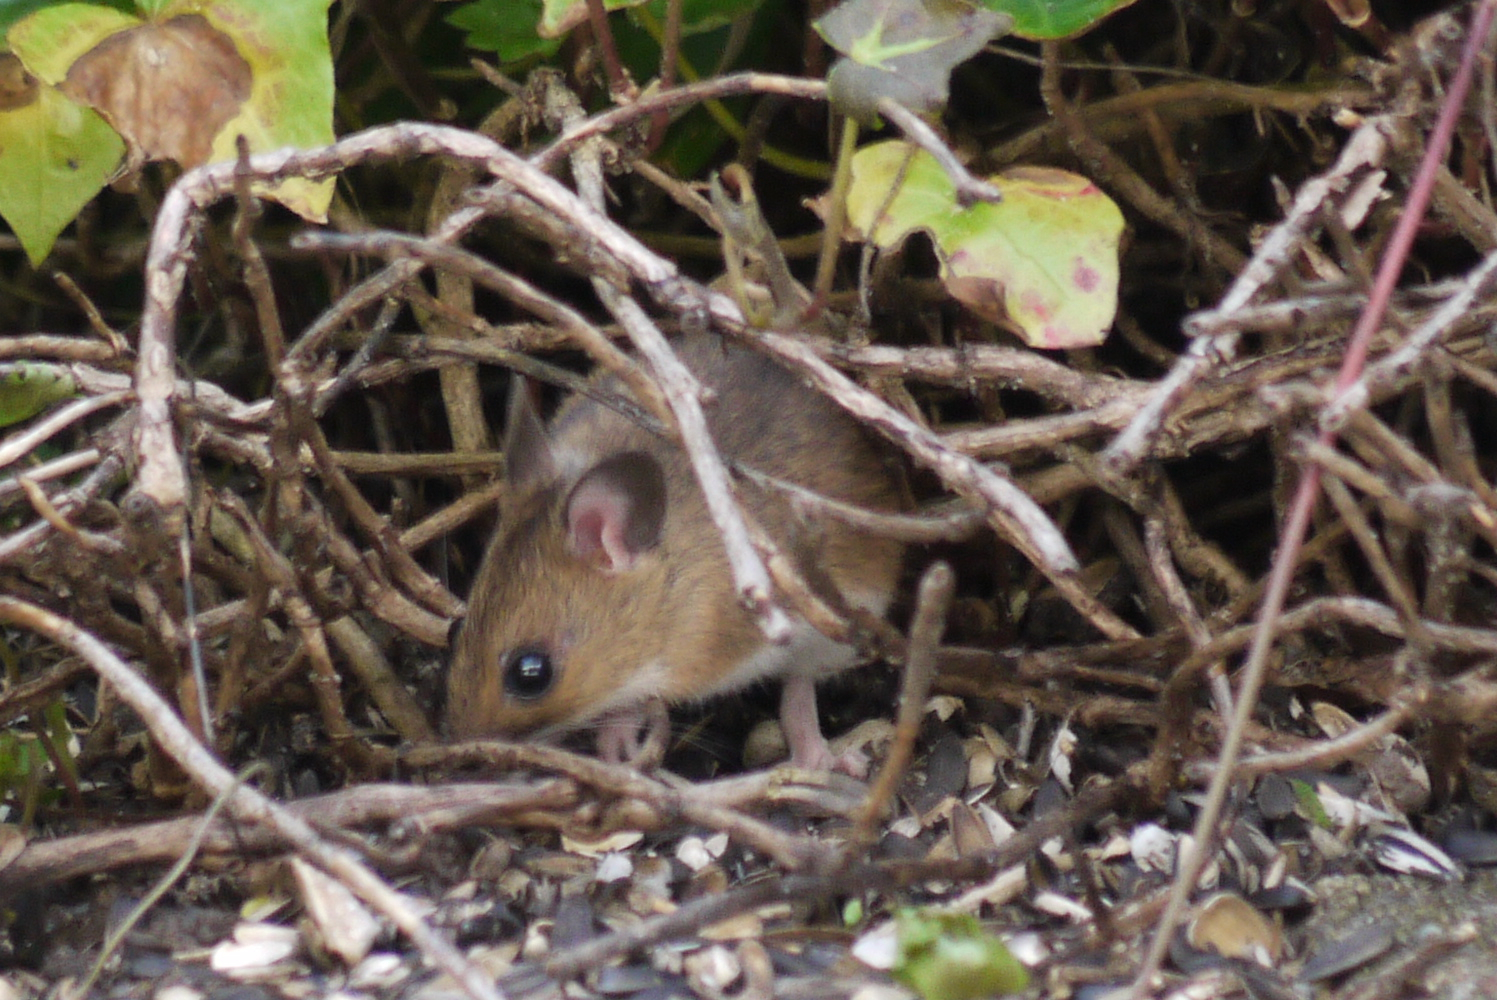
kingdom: Animalia
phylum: Chordata
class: Mammalia
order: Rodentia
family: Muridae
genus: Apodemus
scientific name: Apodemus flavicollis
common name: Yellow-necked field mouse
